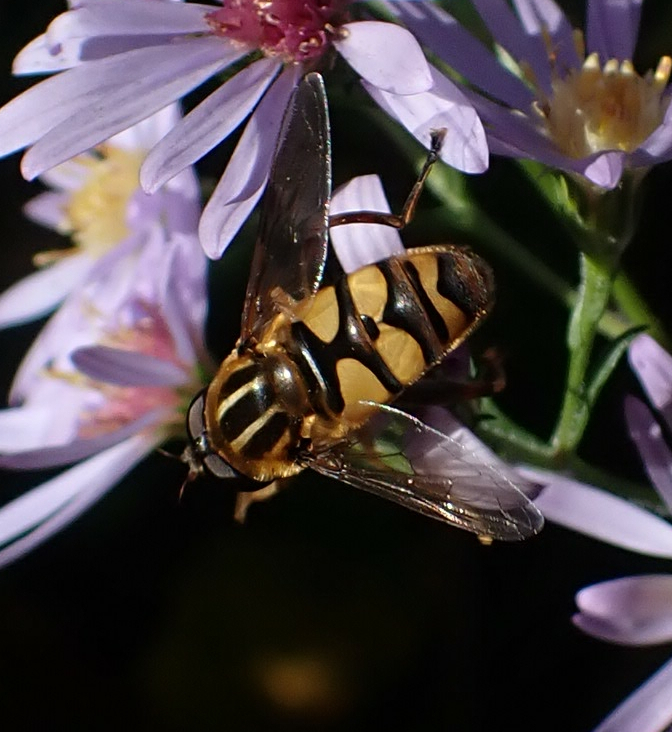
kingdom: Animalia
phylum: Arthropoda
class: Insecta
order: Diptera
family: Syrphidae
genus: Helophilus
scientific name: Helophilus fasciatus
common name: Narrow-headed marsh fly
